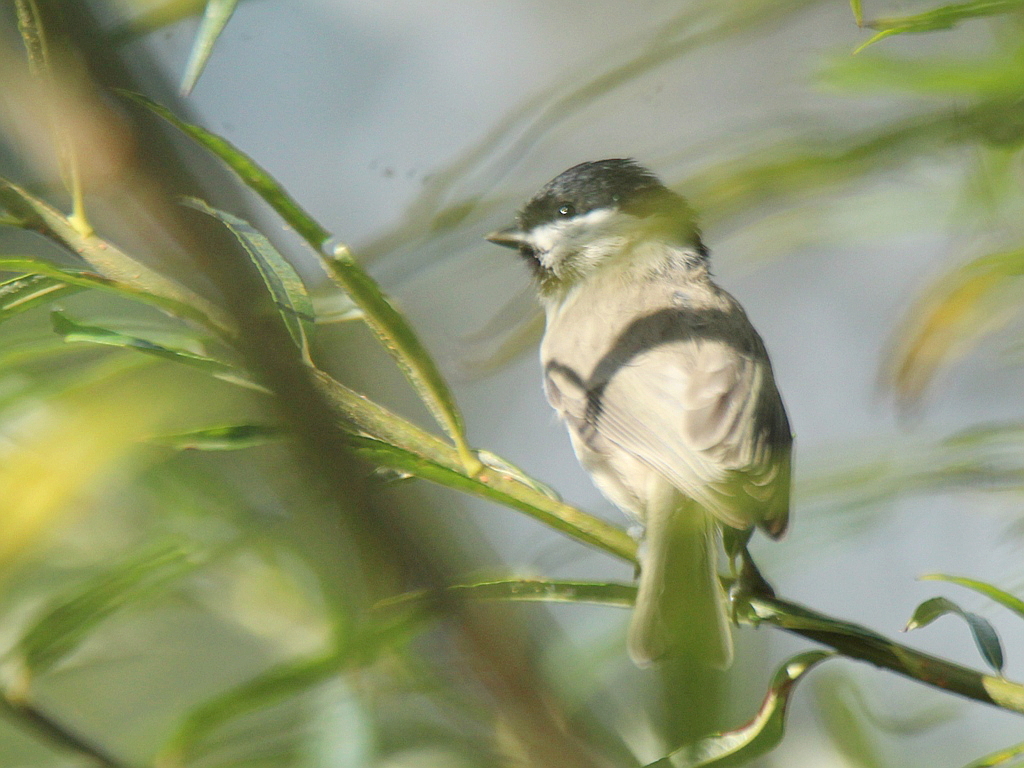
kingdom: Animalia
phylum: Chordata
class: Aves
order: Passeriformes
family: Paridae
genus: Poecile
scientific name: Poecile palustris
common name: Marsh tit
